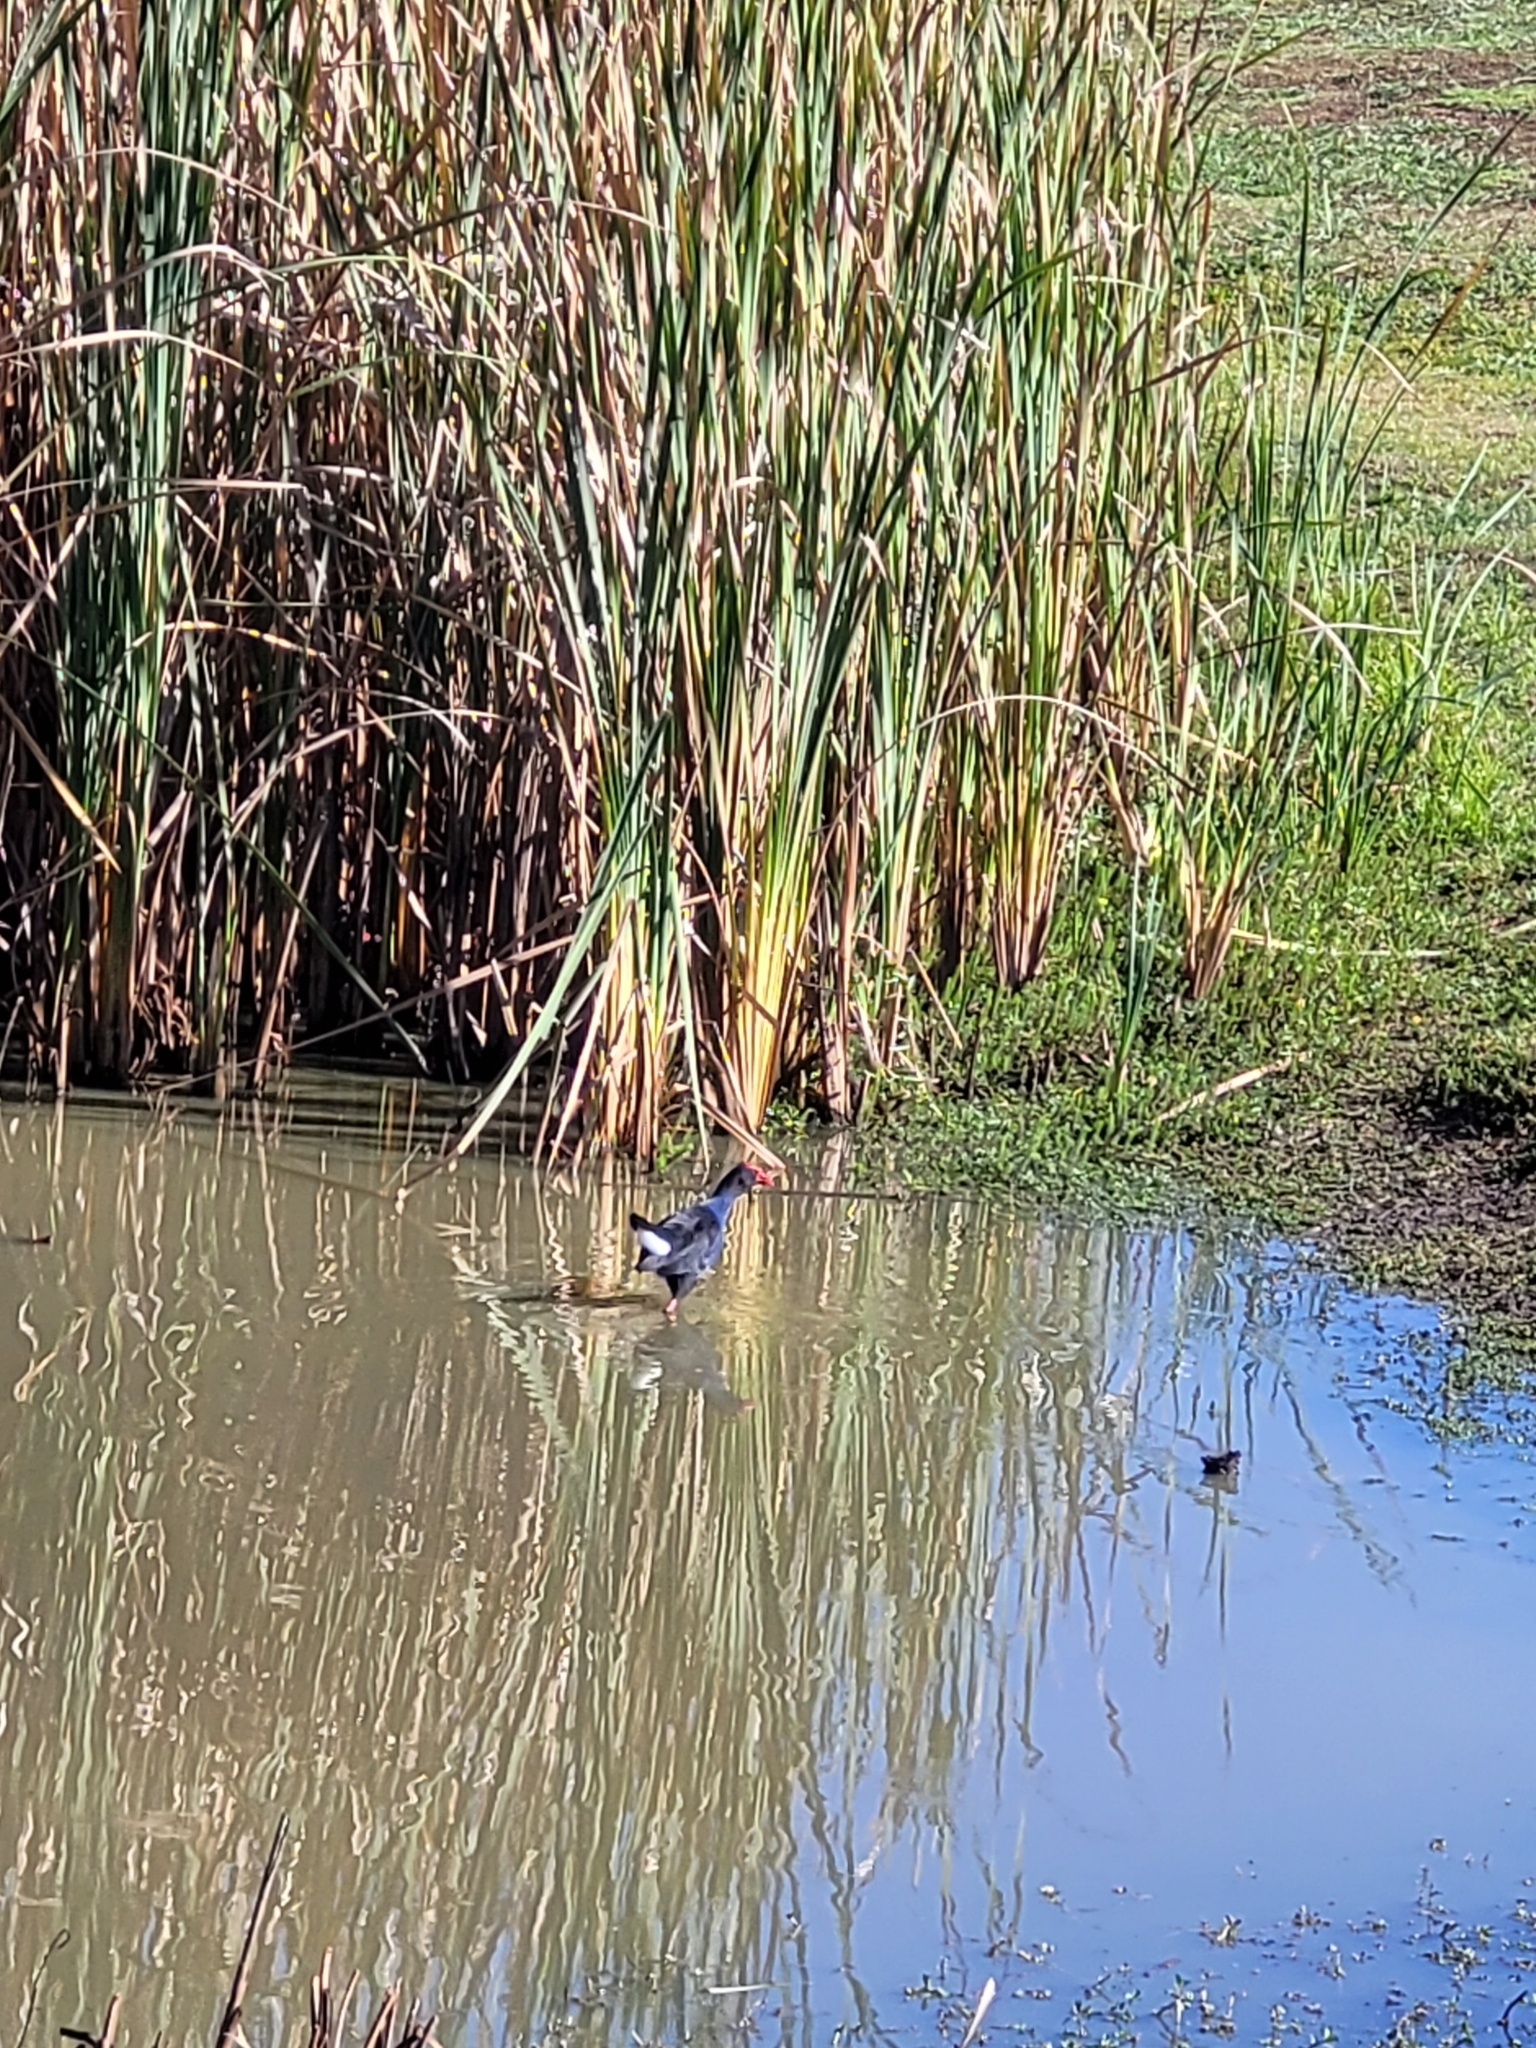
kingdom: Animalia
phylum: Chordata
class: Aves
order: Gruiformes
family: Rallidae
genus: Porphyrio
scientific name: Porphyrio melanotus
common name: Australasian swamphen
